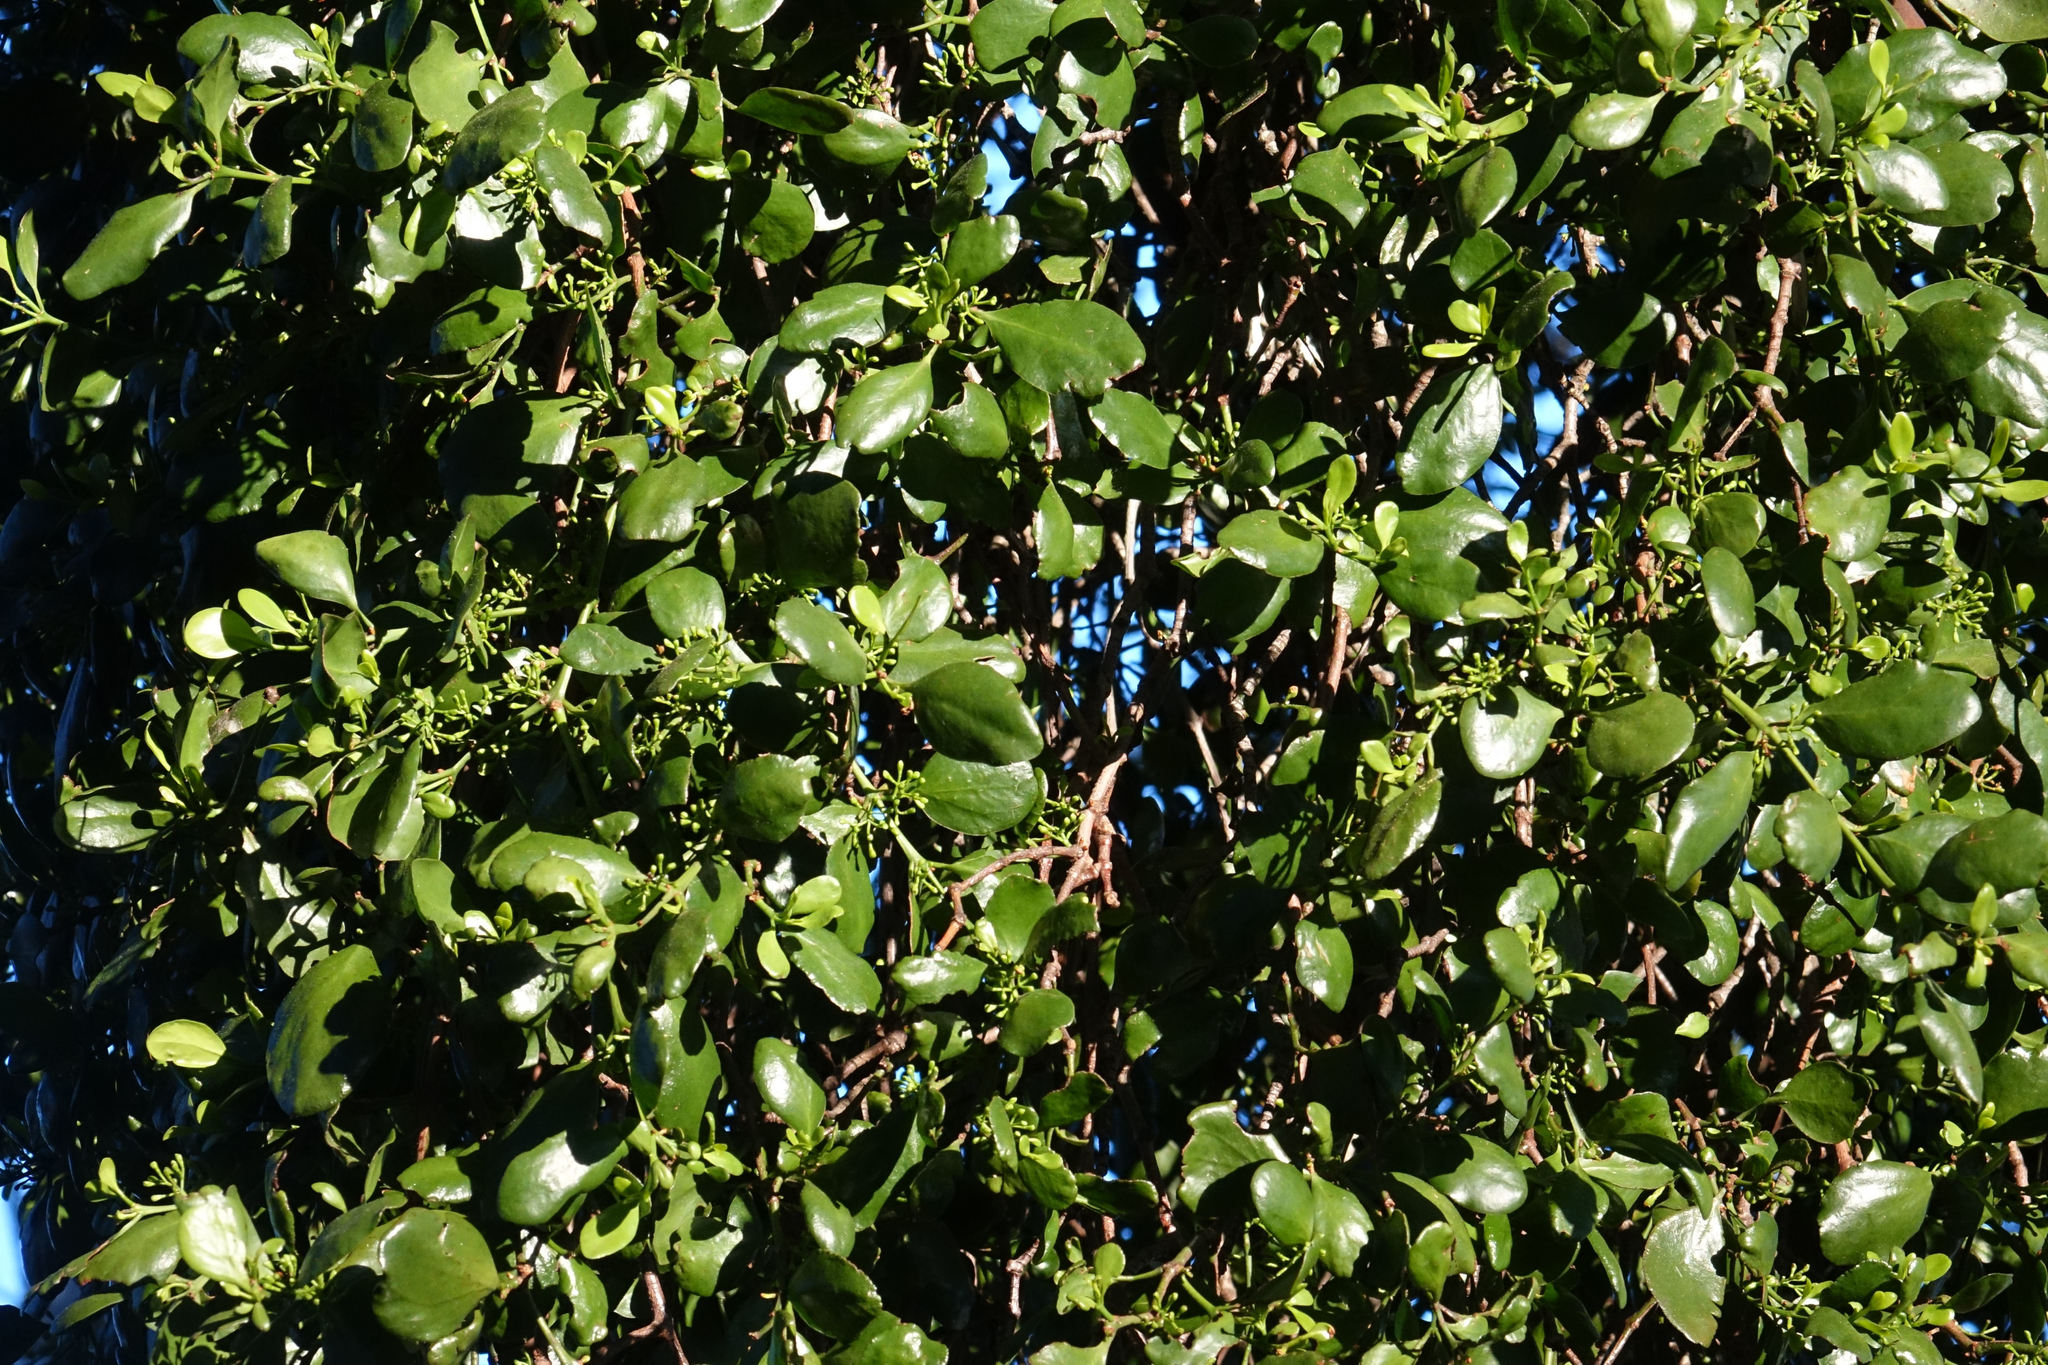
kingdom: Plantae
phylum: Tracheophyta
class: Magnoliopsida
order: Santalales
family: Loranthaceae
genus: Ileostylus
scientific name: Ileostylus micranthus
